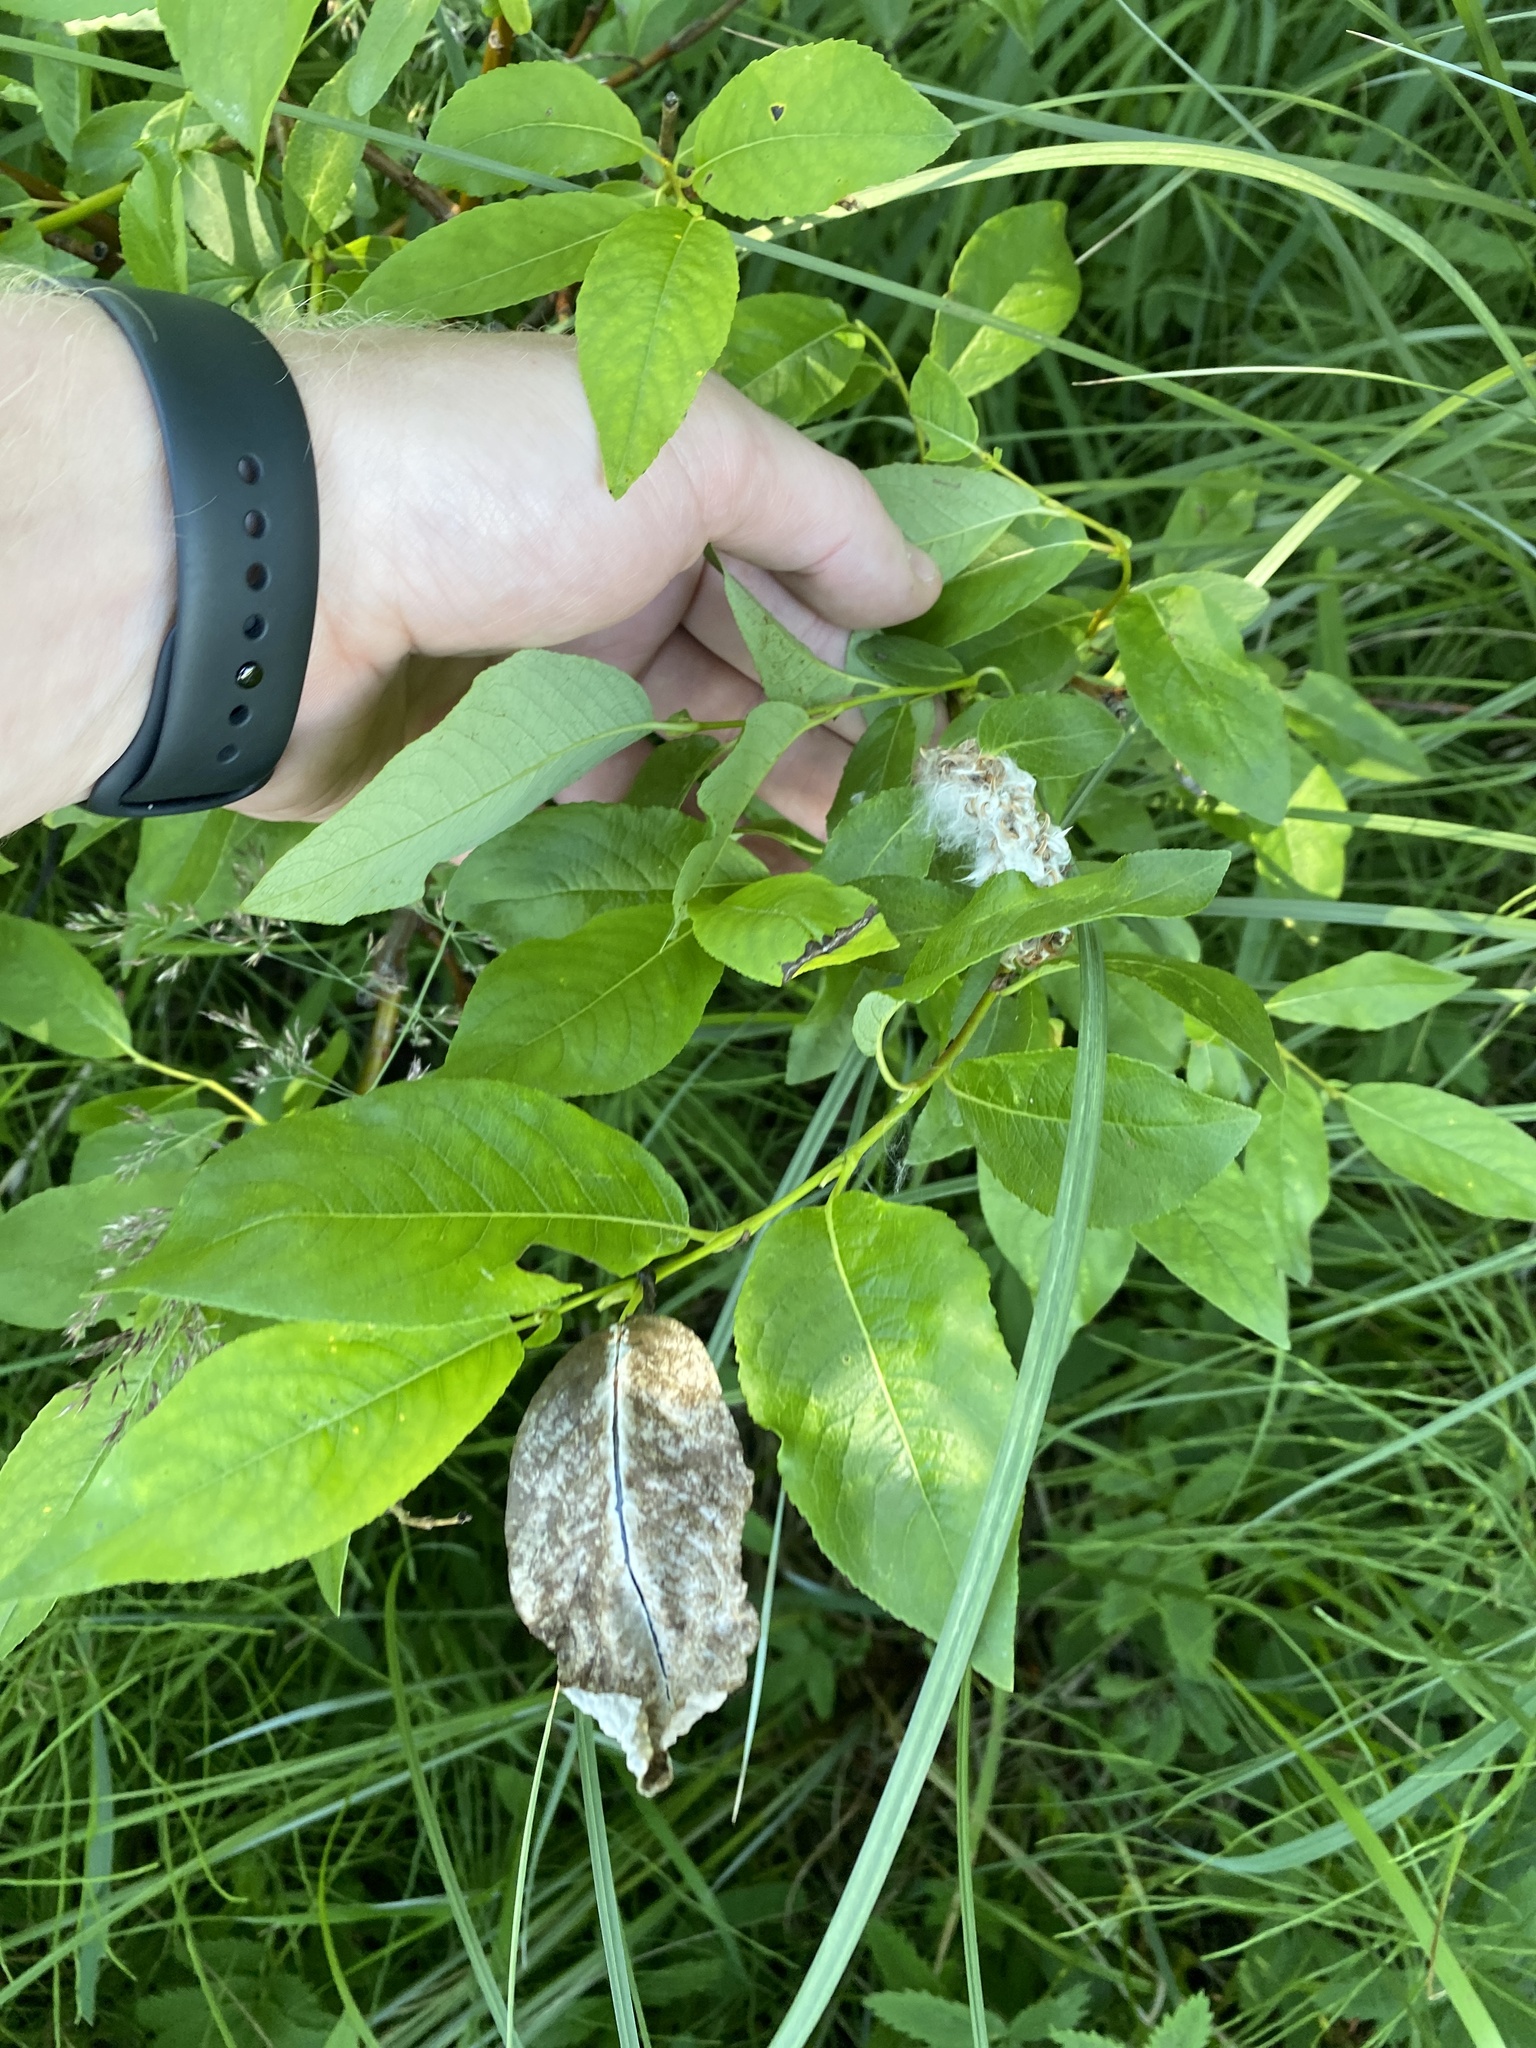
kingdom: Plantae
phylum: Tracheophyta
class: Magnoliopsida
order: Malpighiales
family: Salicaceae
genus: Salix
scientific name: Salix bebbiana
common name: Bebb's willow
